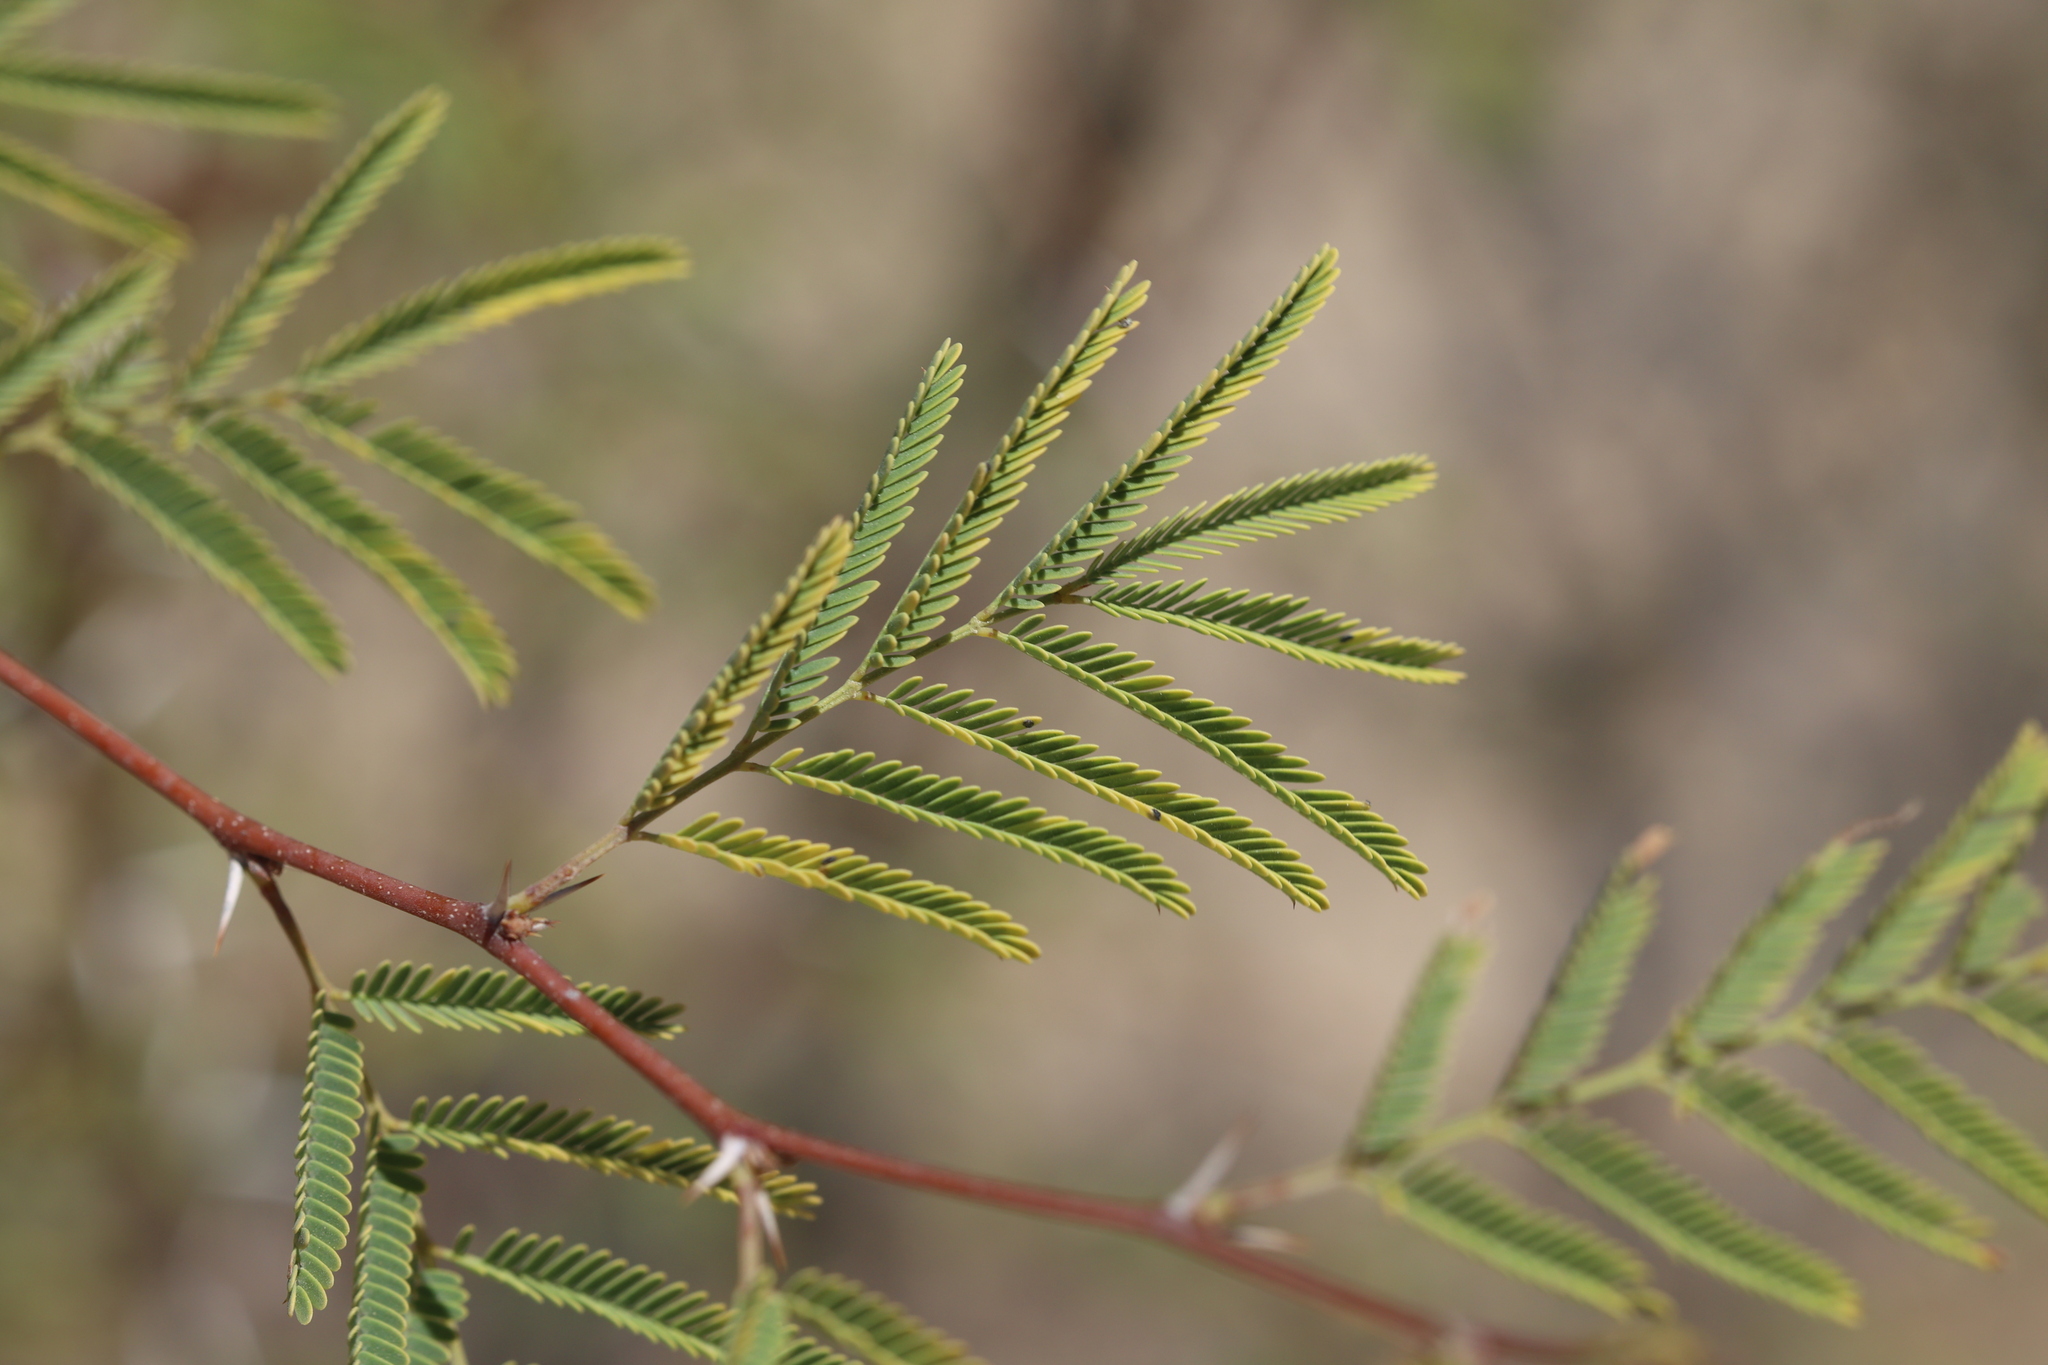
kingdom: Plantae
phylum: Tracheophyta
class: Magnoliopsida
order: Fabales
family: Fabaceae
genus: Vachellia
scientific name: Vachellia farnesiana
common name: Sweet acacia
